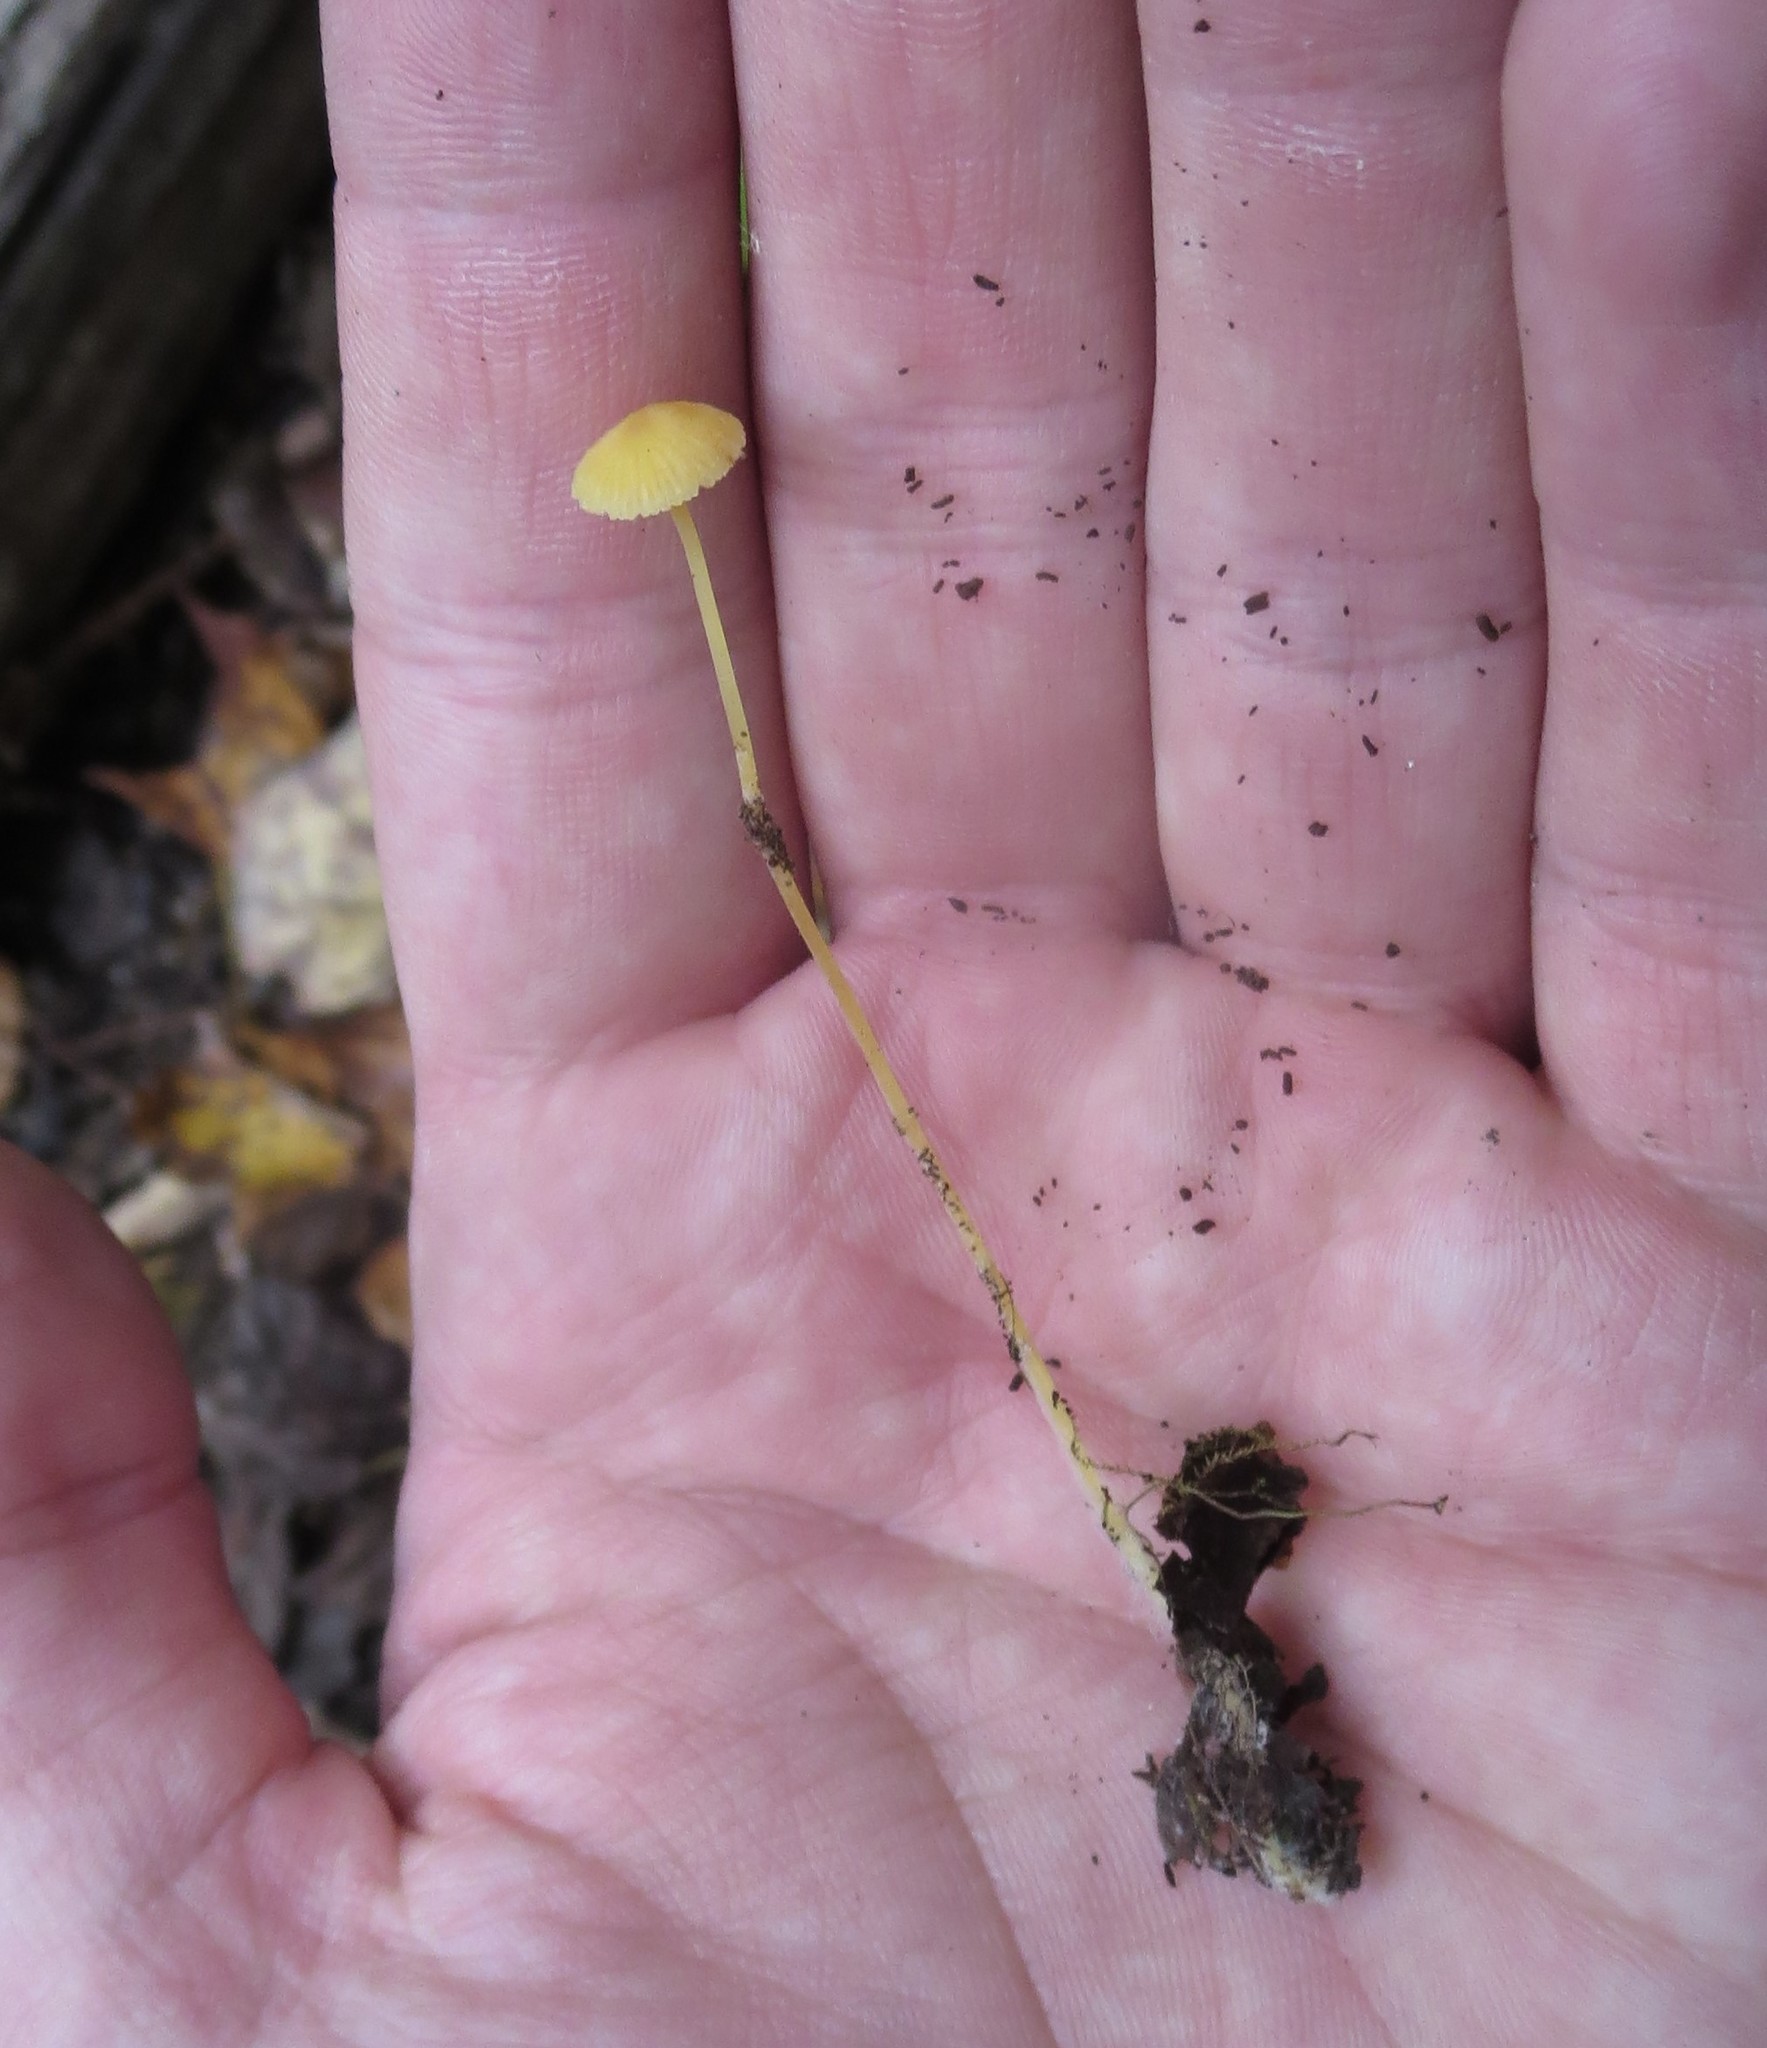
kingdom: Fungi
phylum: Basidiomycota
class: Agaricomycetes
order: Agaricales
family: Mycenaceae
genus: Mycena
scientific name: Mycena crocea
